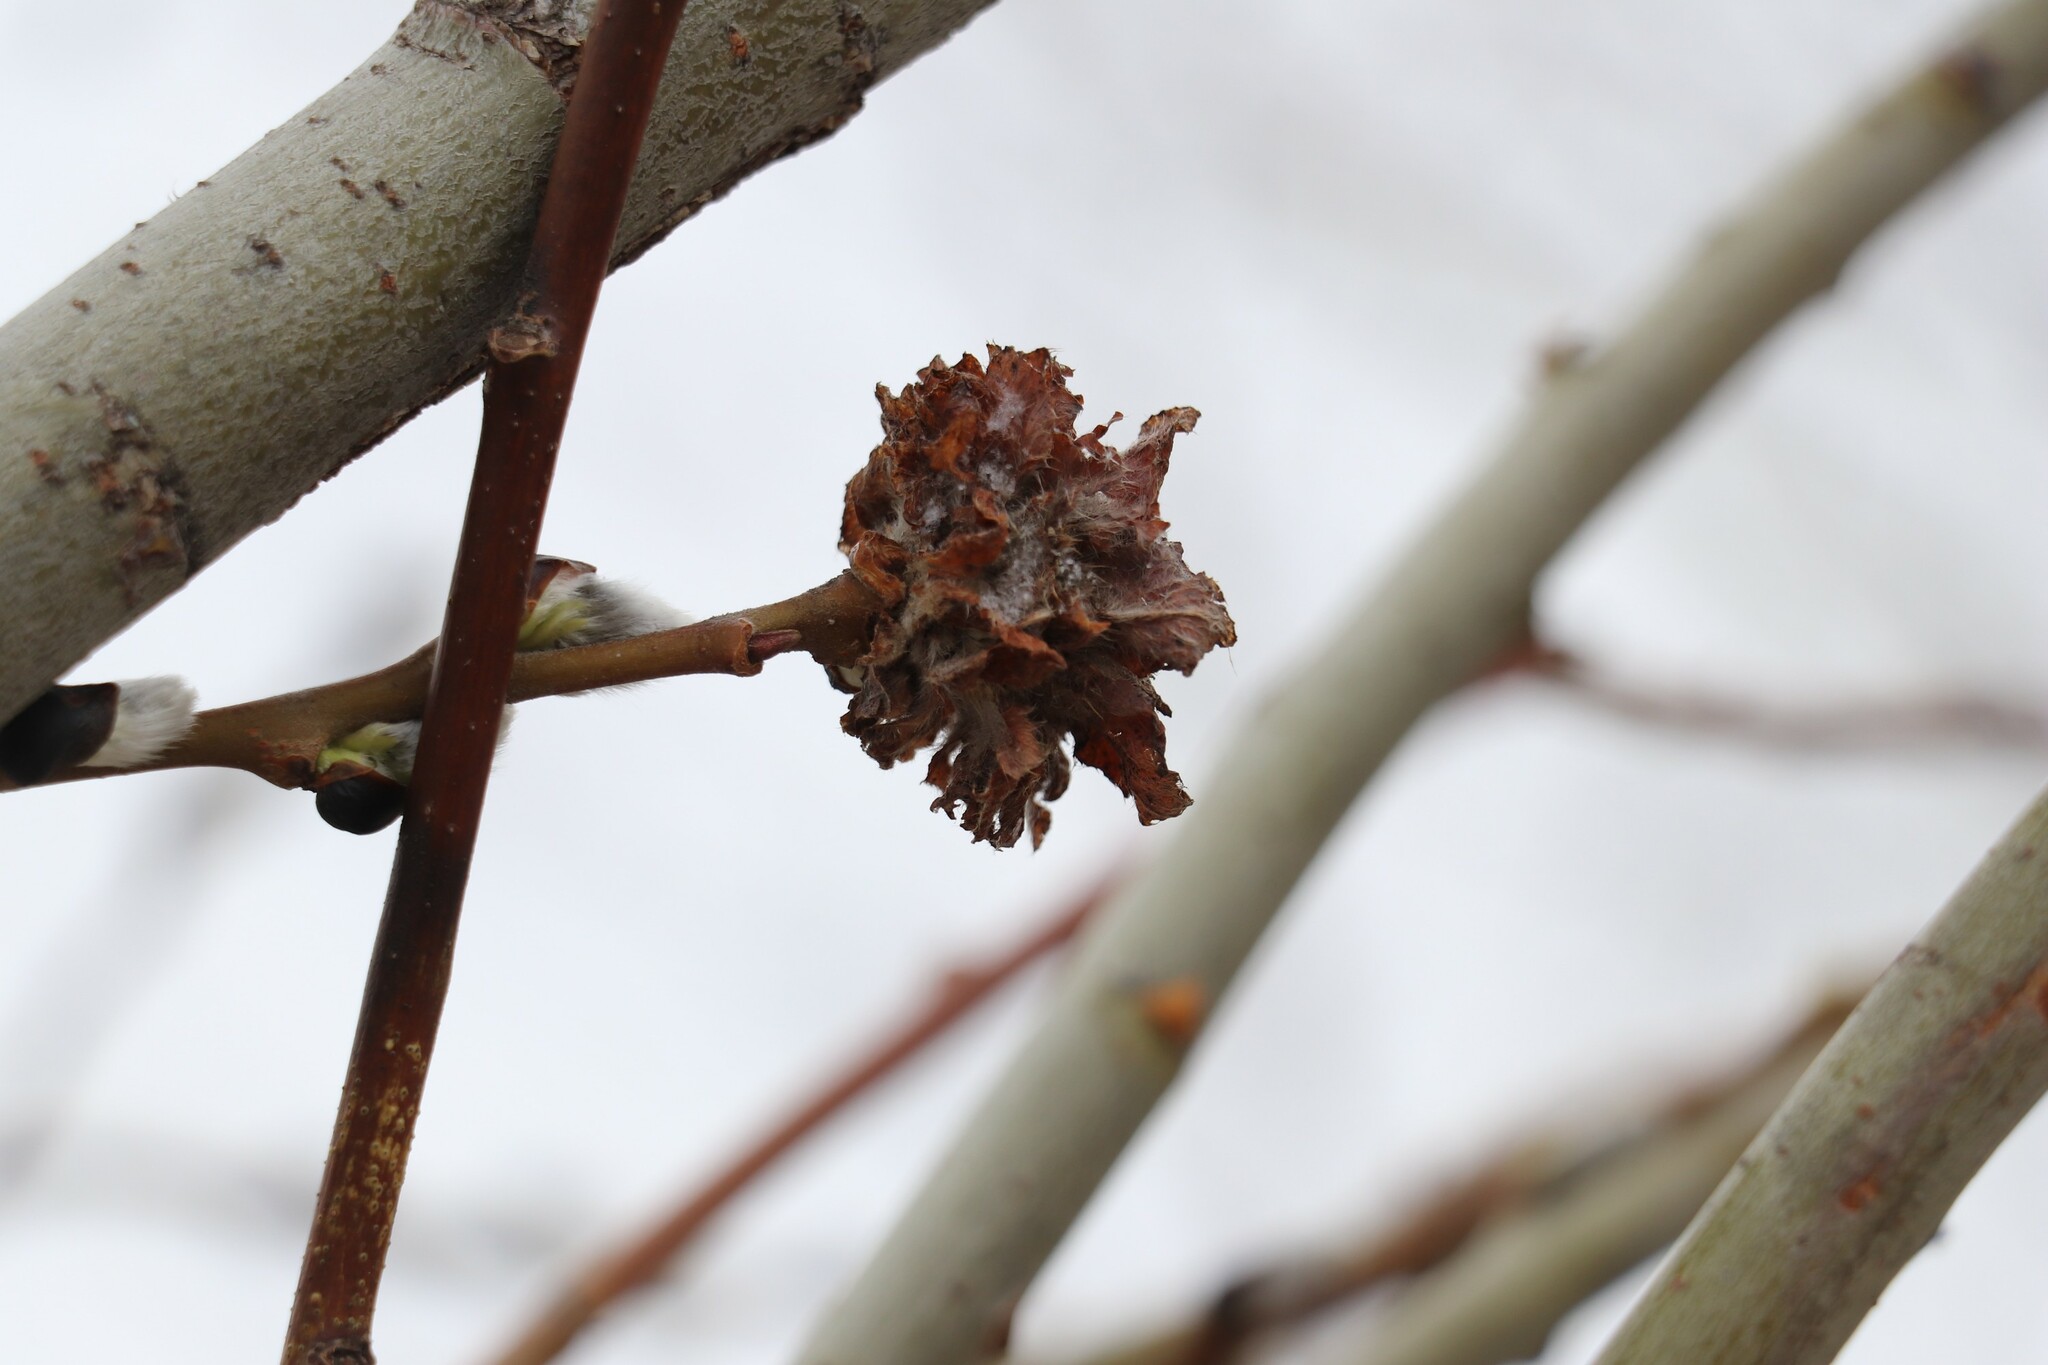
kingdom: Animalia
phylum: Arthropoda
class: Insecta
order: Diptera
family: Cecidomyiidae
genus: Rabdophaga
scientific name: Rabdophaga rosaria
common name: Willow rose gall midge
